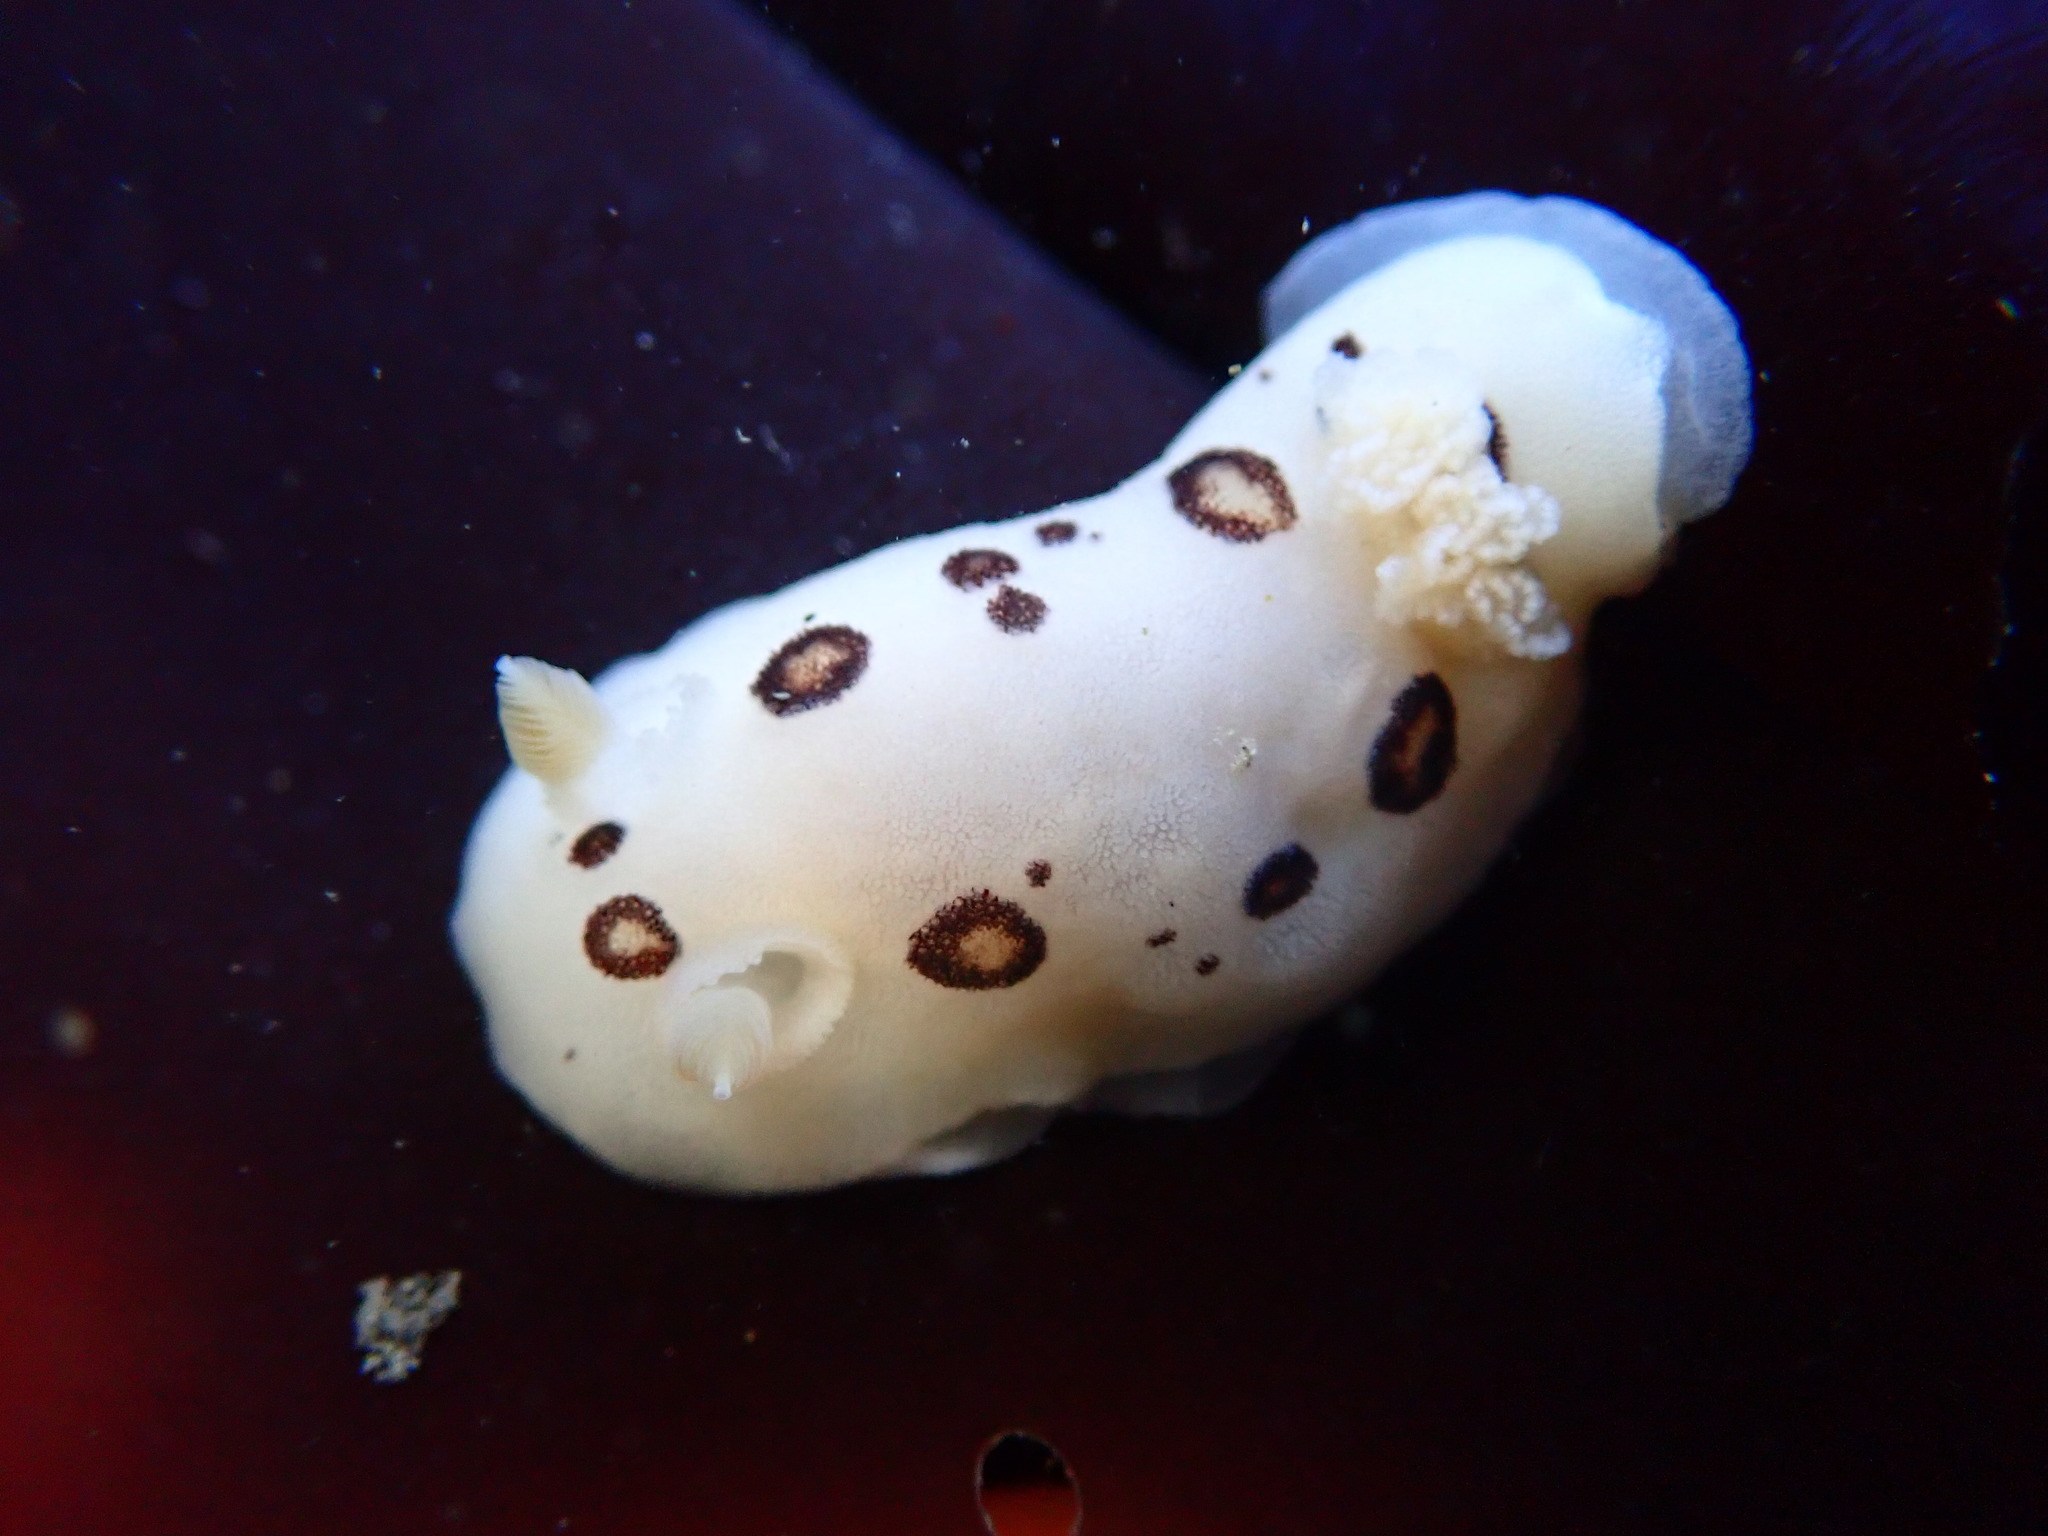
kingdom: Animalia
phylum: Mollusca
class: Gastropoda
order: Nudibranchia
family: Discodorididae
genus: Diaulula
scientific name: Diaulula sandiegensis
